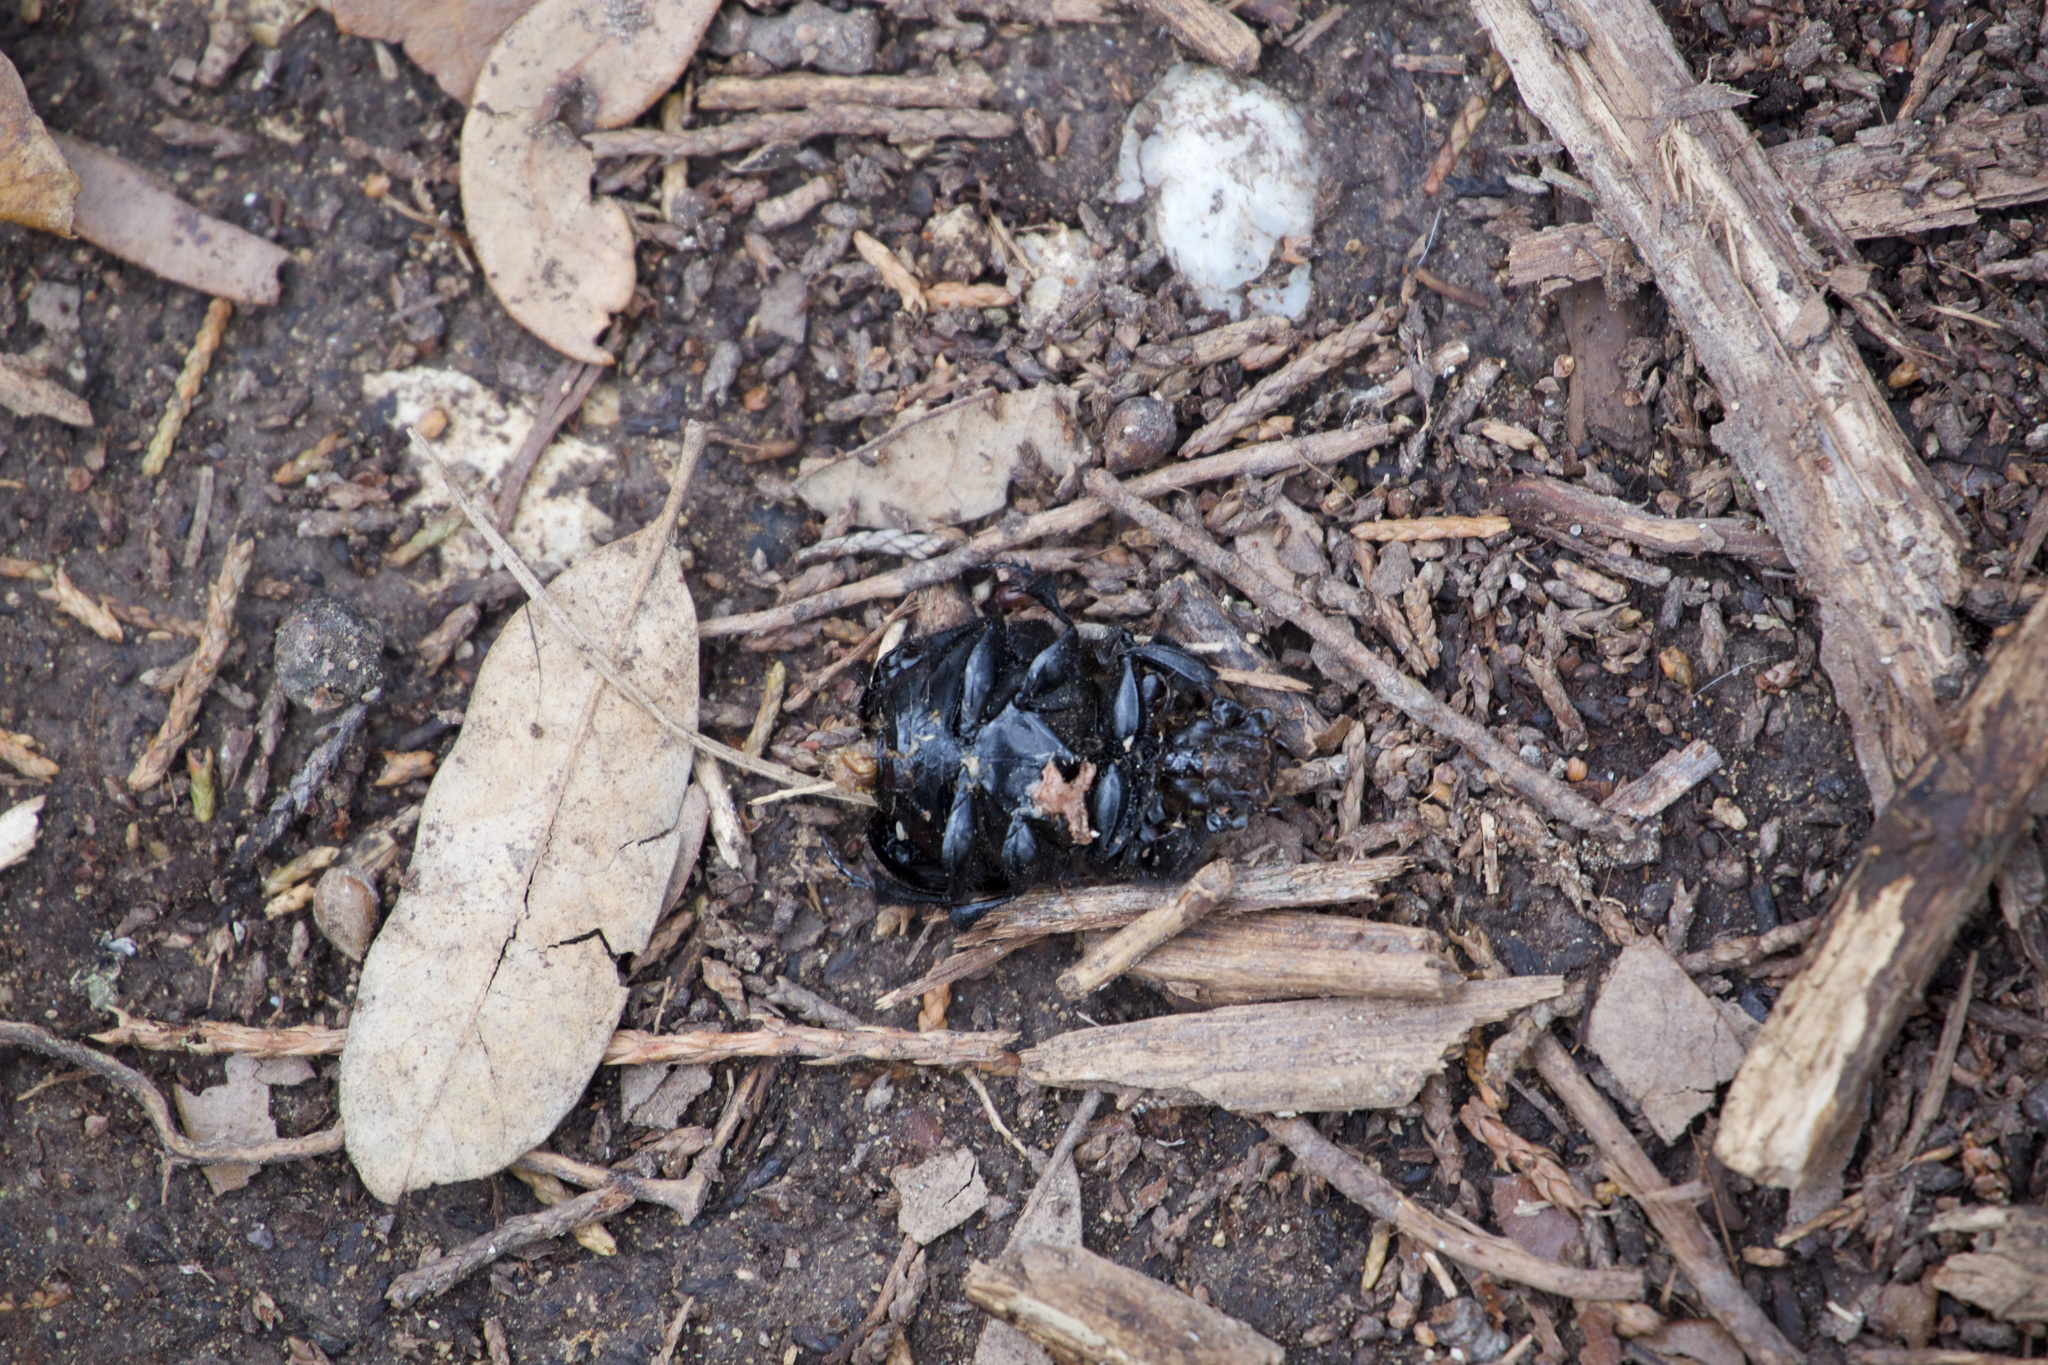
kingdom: Animalia
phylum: Arthropoda
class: Insecta
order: Coleoptera
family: Scarabaeidae
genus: Phanaeus
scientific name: Phanaeus texensis
